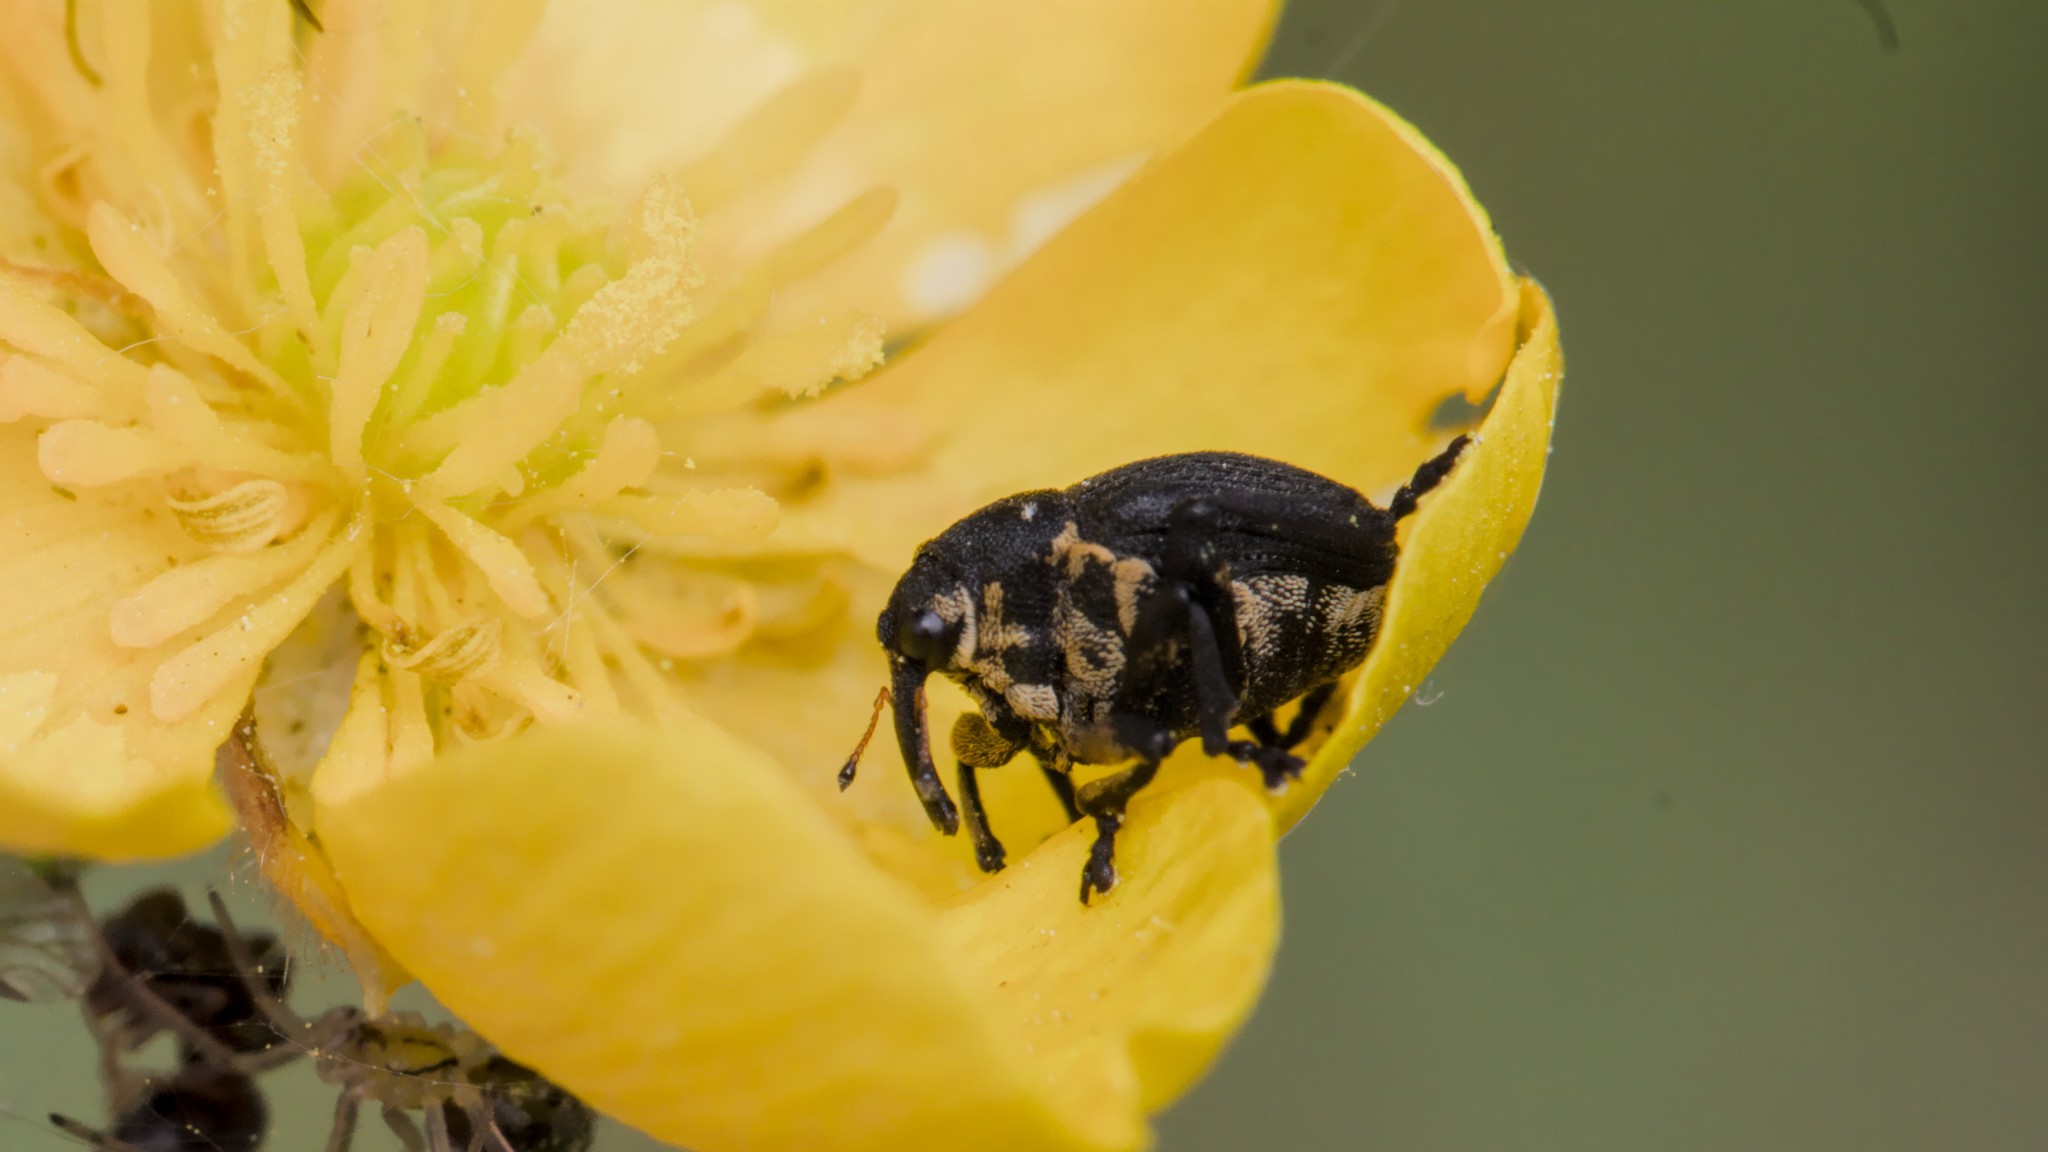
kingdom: Animalia
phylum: Arthropoda
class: Insecta
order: Coleoptera
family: Curculionidae
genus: Mononychus
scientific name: Mononychus punctumalbum
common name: Iris weevil
